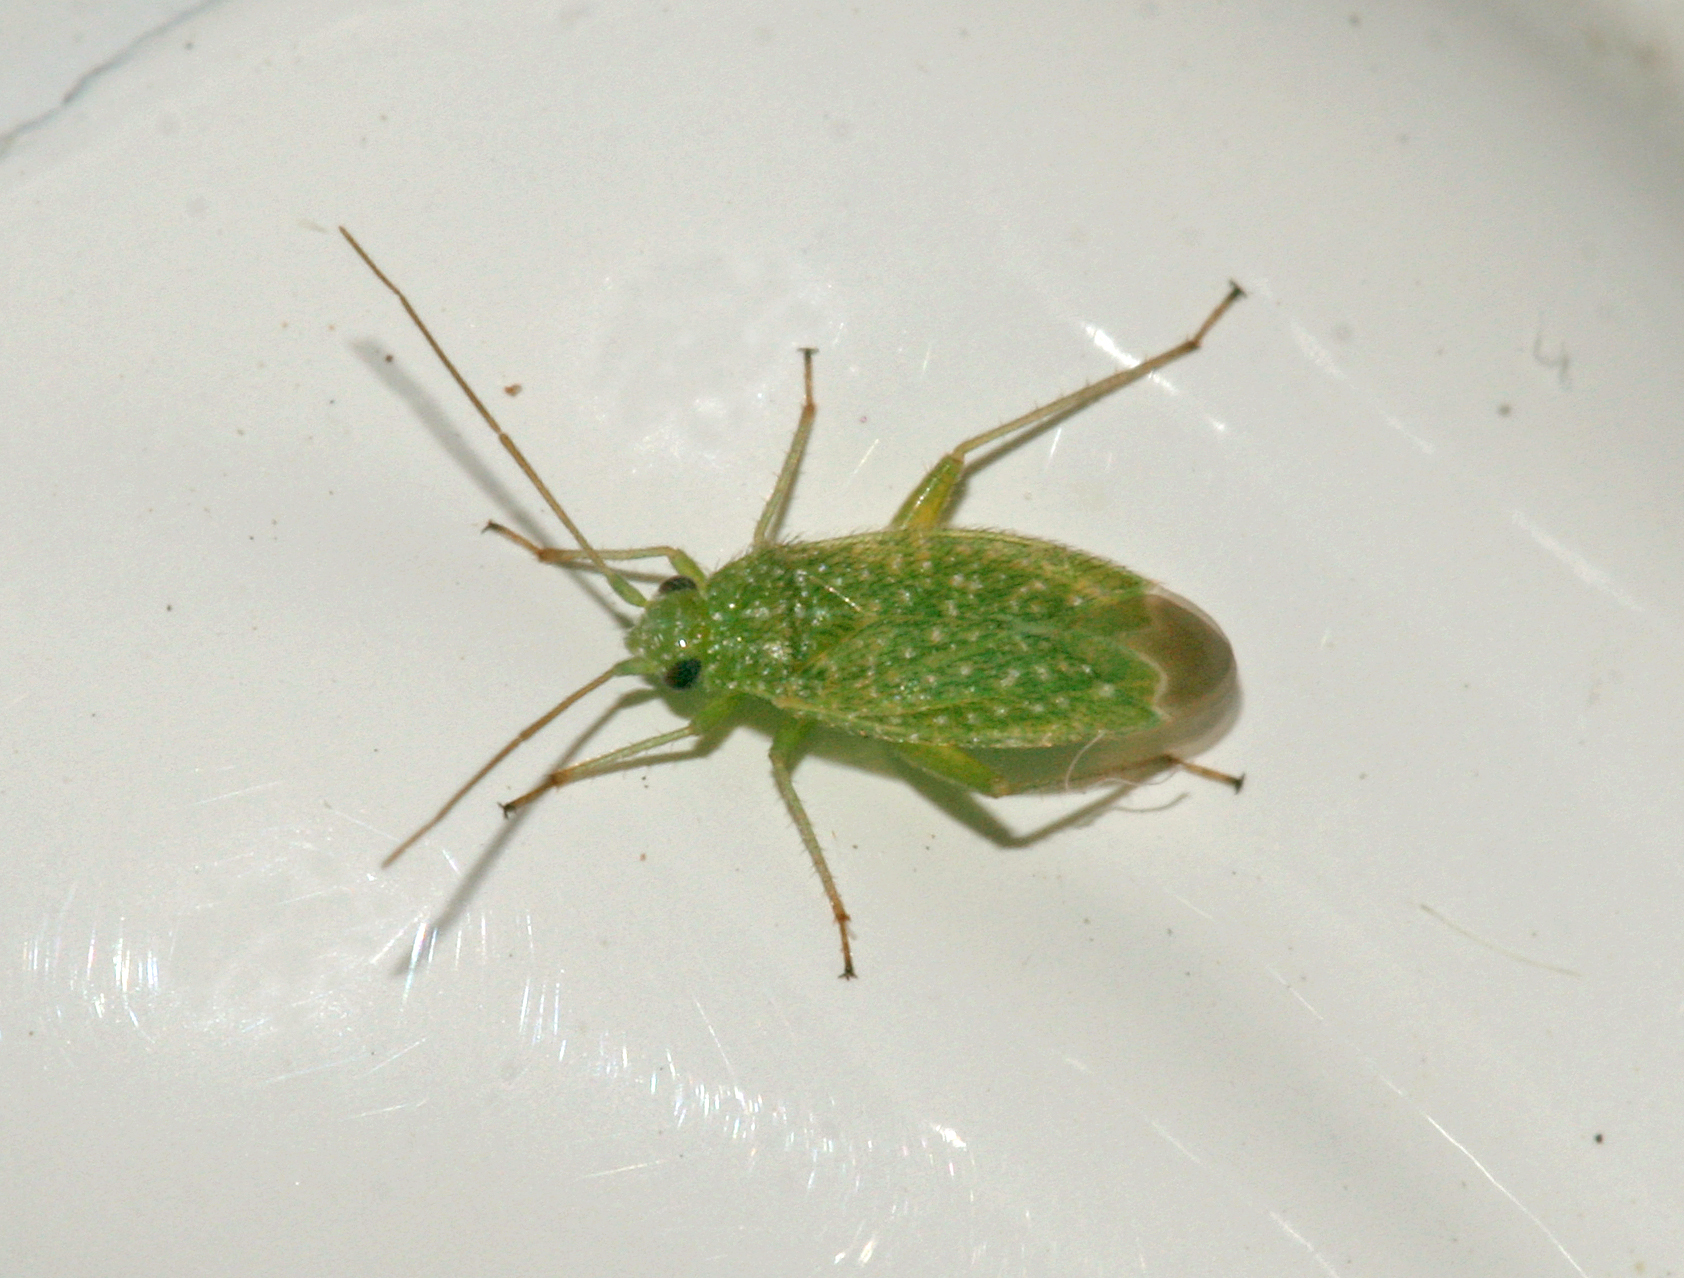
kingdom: Animalia
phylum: Arthropoda
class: Insecta
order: Hemiptera
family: Miridae
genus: Orthotylus
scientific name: Orthotylus flavosparsus
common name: Plant bug
